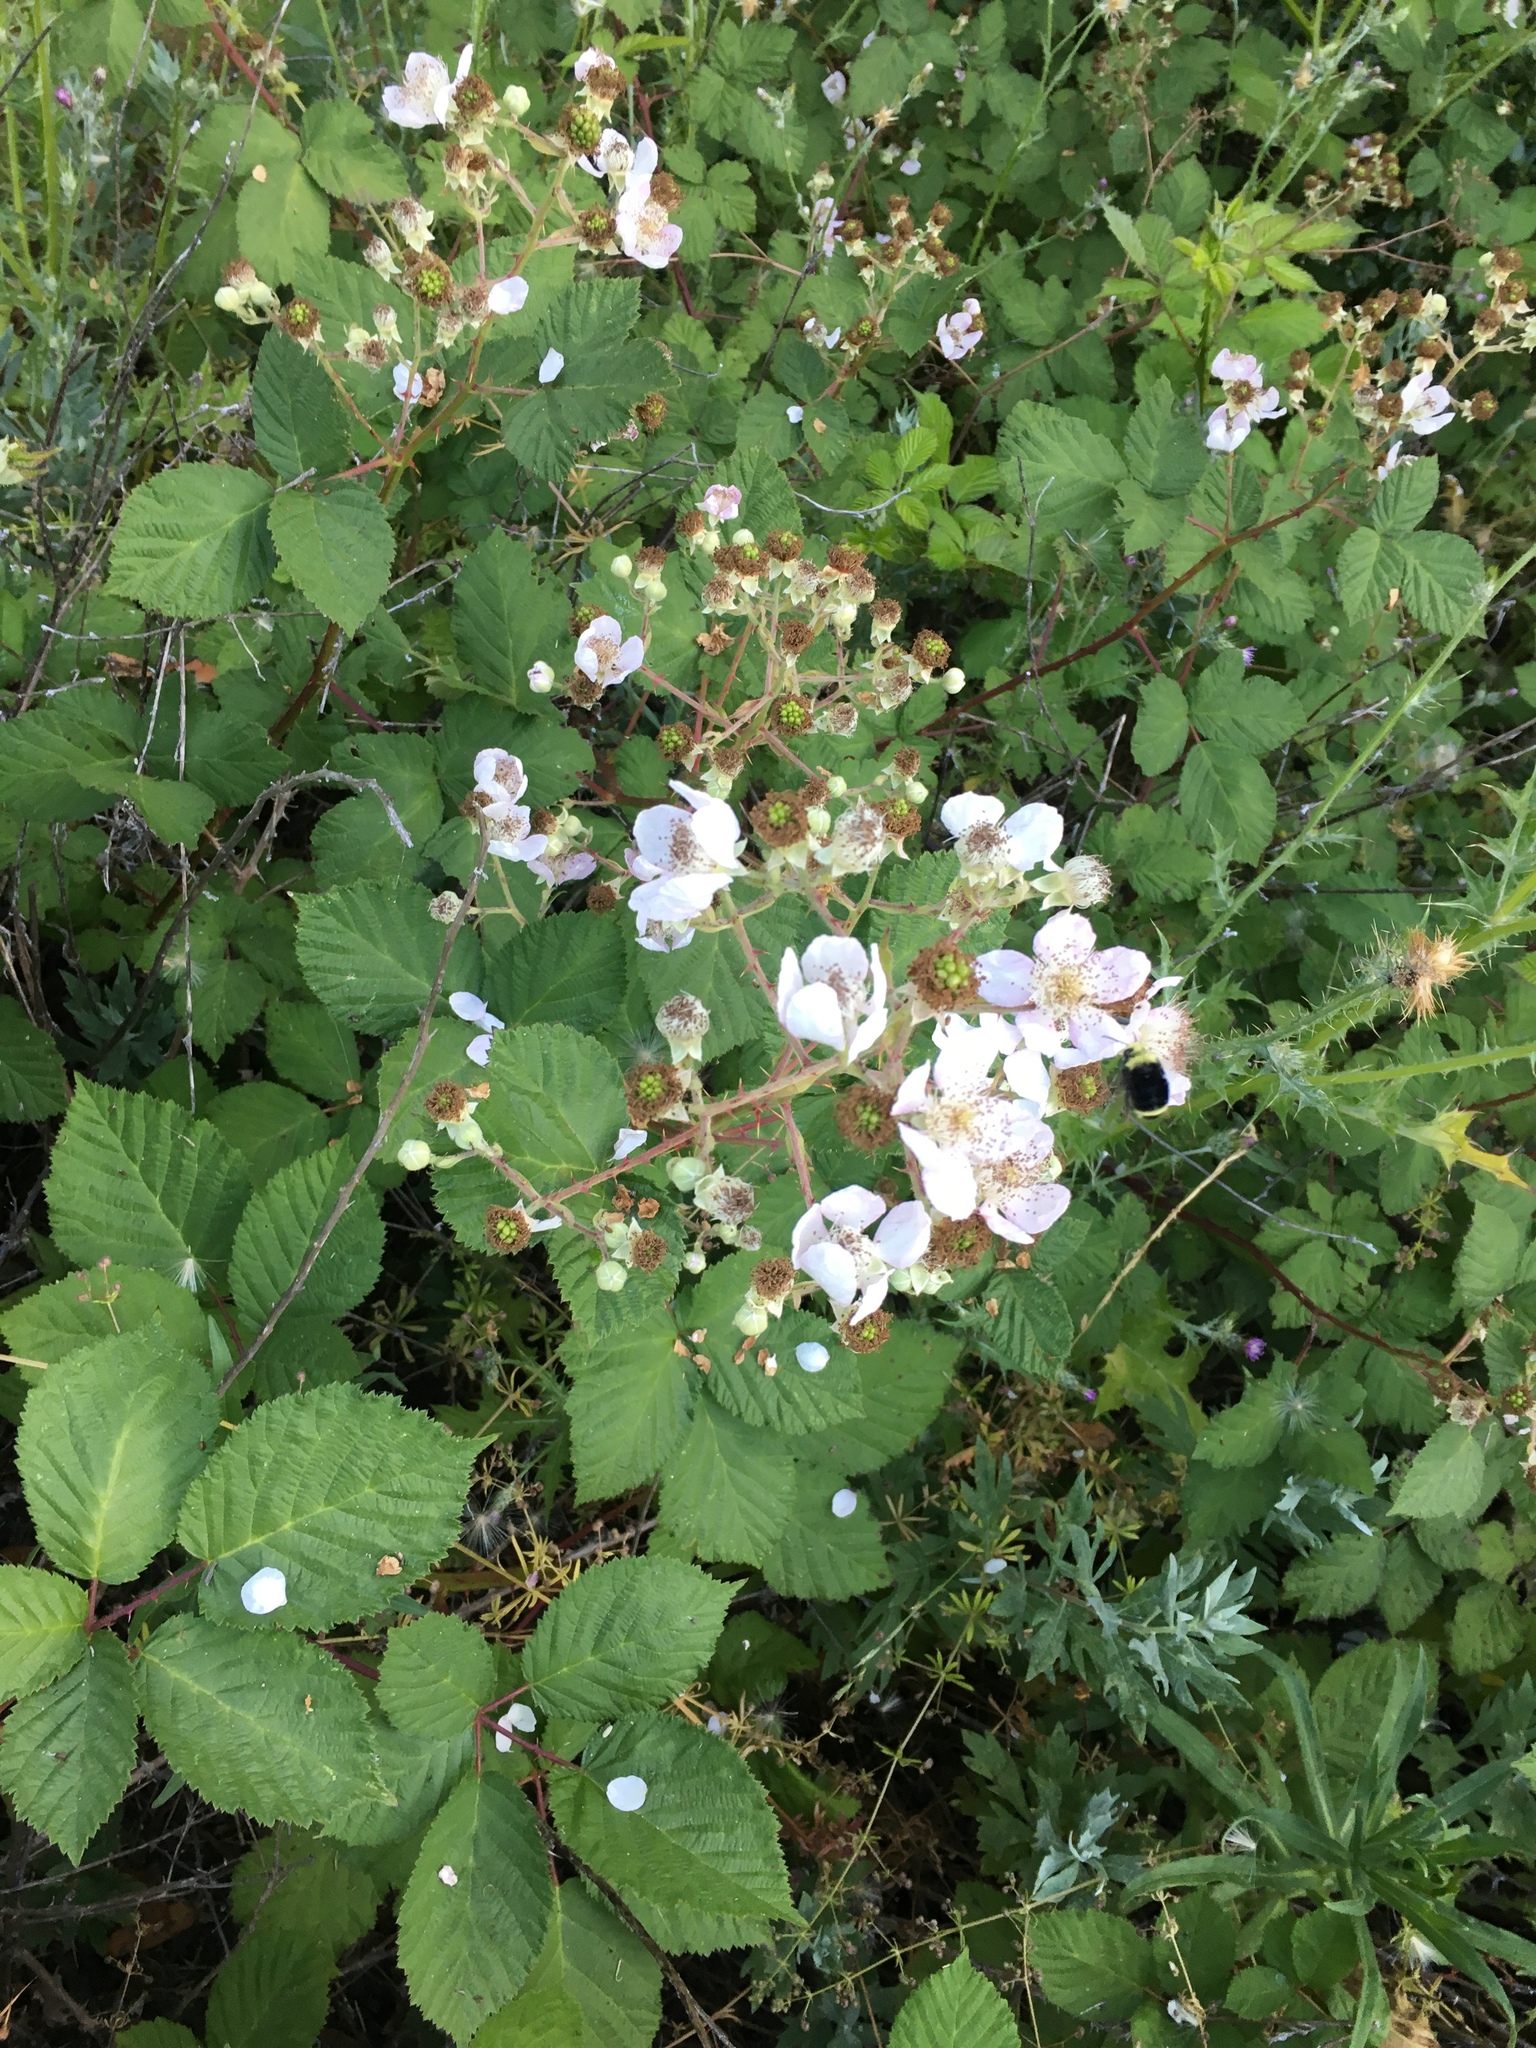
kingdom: Plantae
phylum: Tracheophyta
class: Magnoliopsida
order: Rosales
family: Rosaceae
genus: Rubus
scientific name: Rubus armeniacus
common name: Himalayan blackberry
